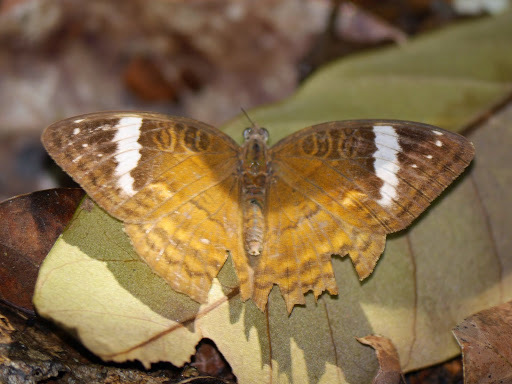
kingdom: Animalia
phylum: Arthropoda
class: Insecta
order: Lepidoptera
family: Nymphalidae
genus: Euriphene
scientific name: Euriphene tadema
